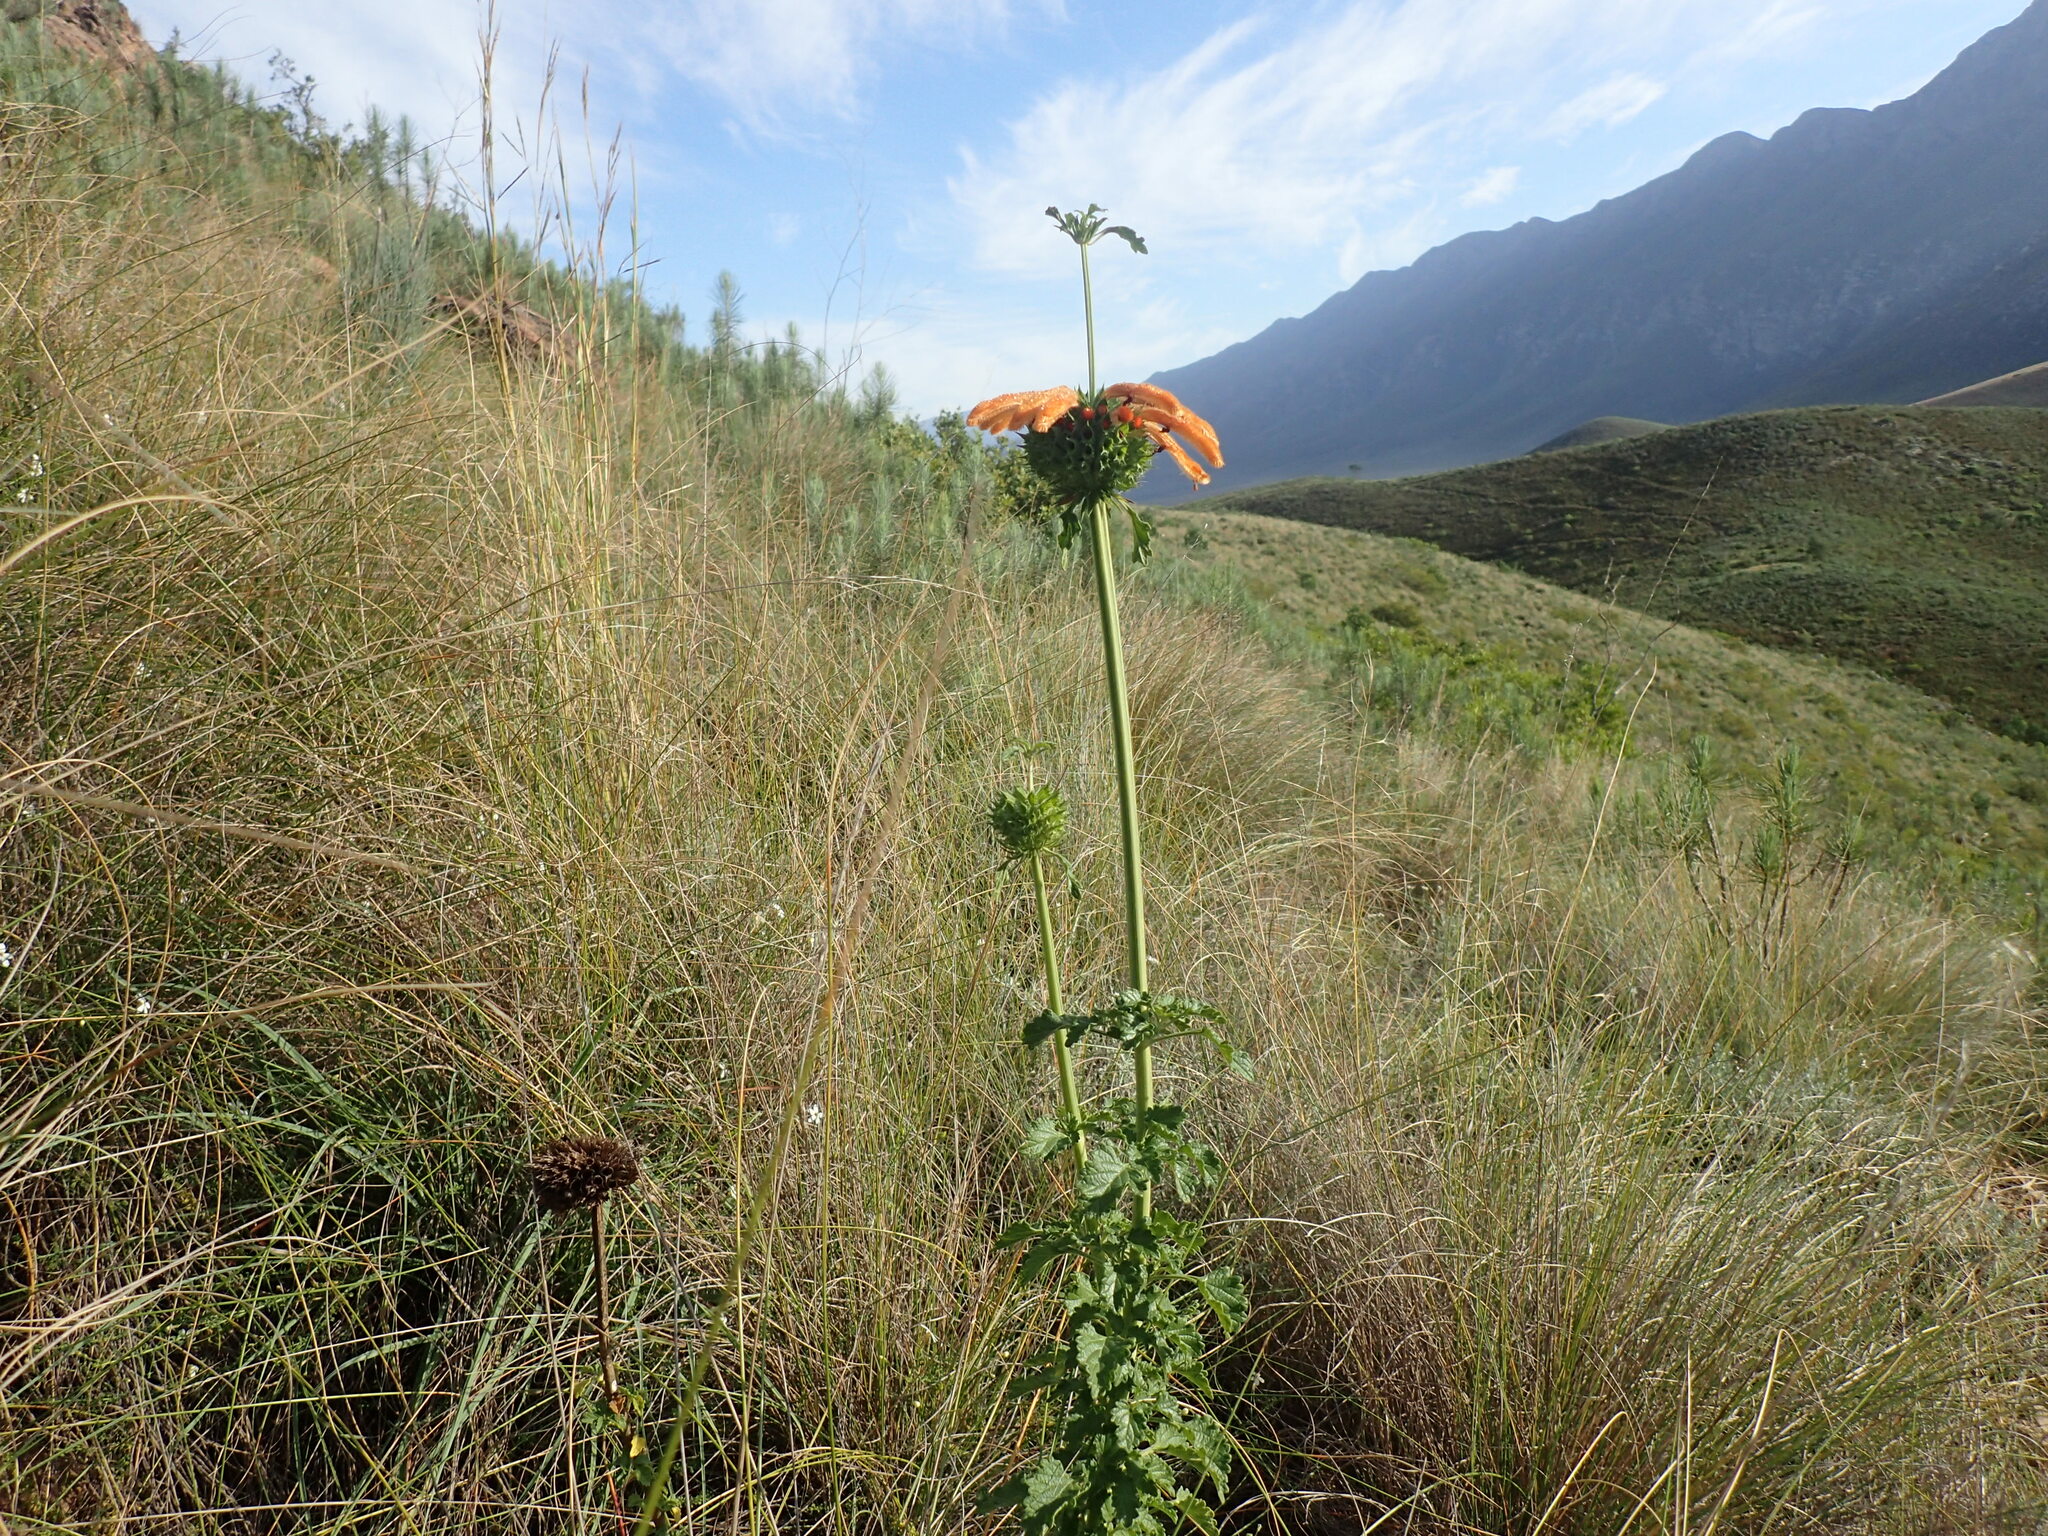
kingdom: Plantae
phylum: Tracheophyta
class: Magnoliopsida
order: Lamiales
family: Lamiaceae
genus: Leonotis
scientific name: Leonotis ocymifolia
